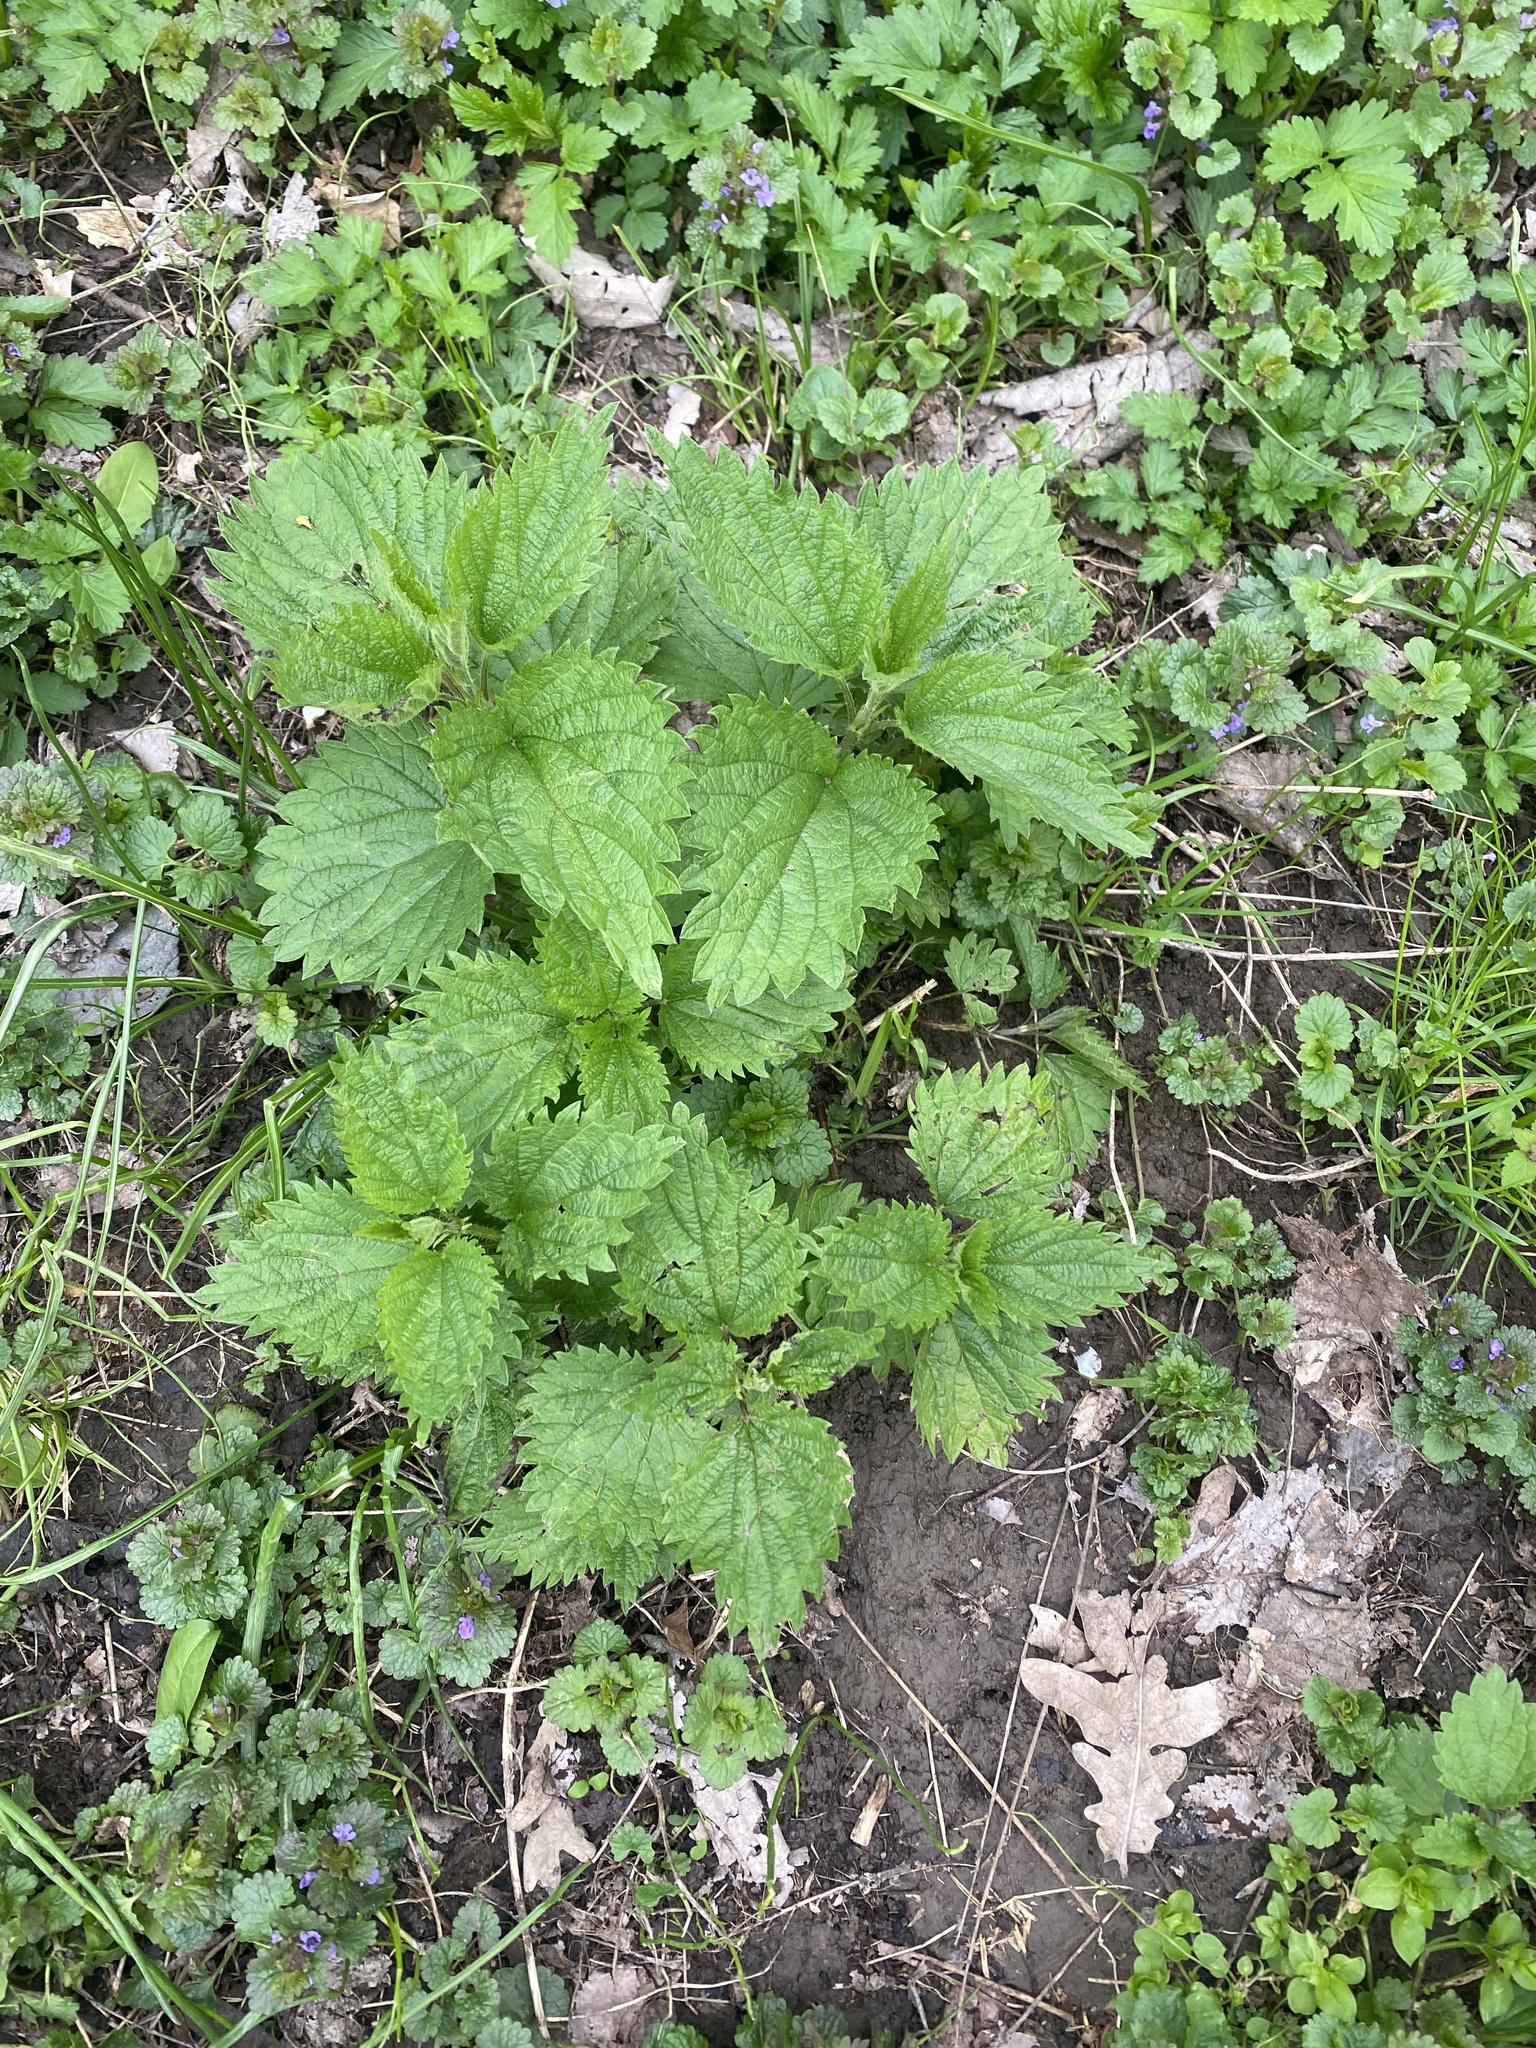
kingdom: Plantae
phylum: Tracheophyta
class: Magnoliopsida
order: Rosales
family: Urticaceae
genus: Urtica
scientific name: Urtica dioica
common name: Common nettle
